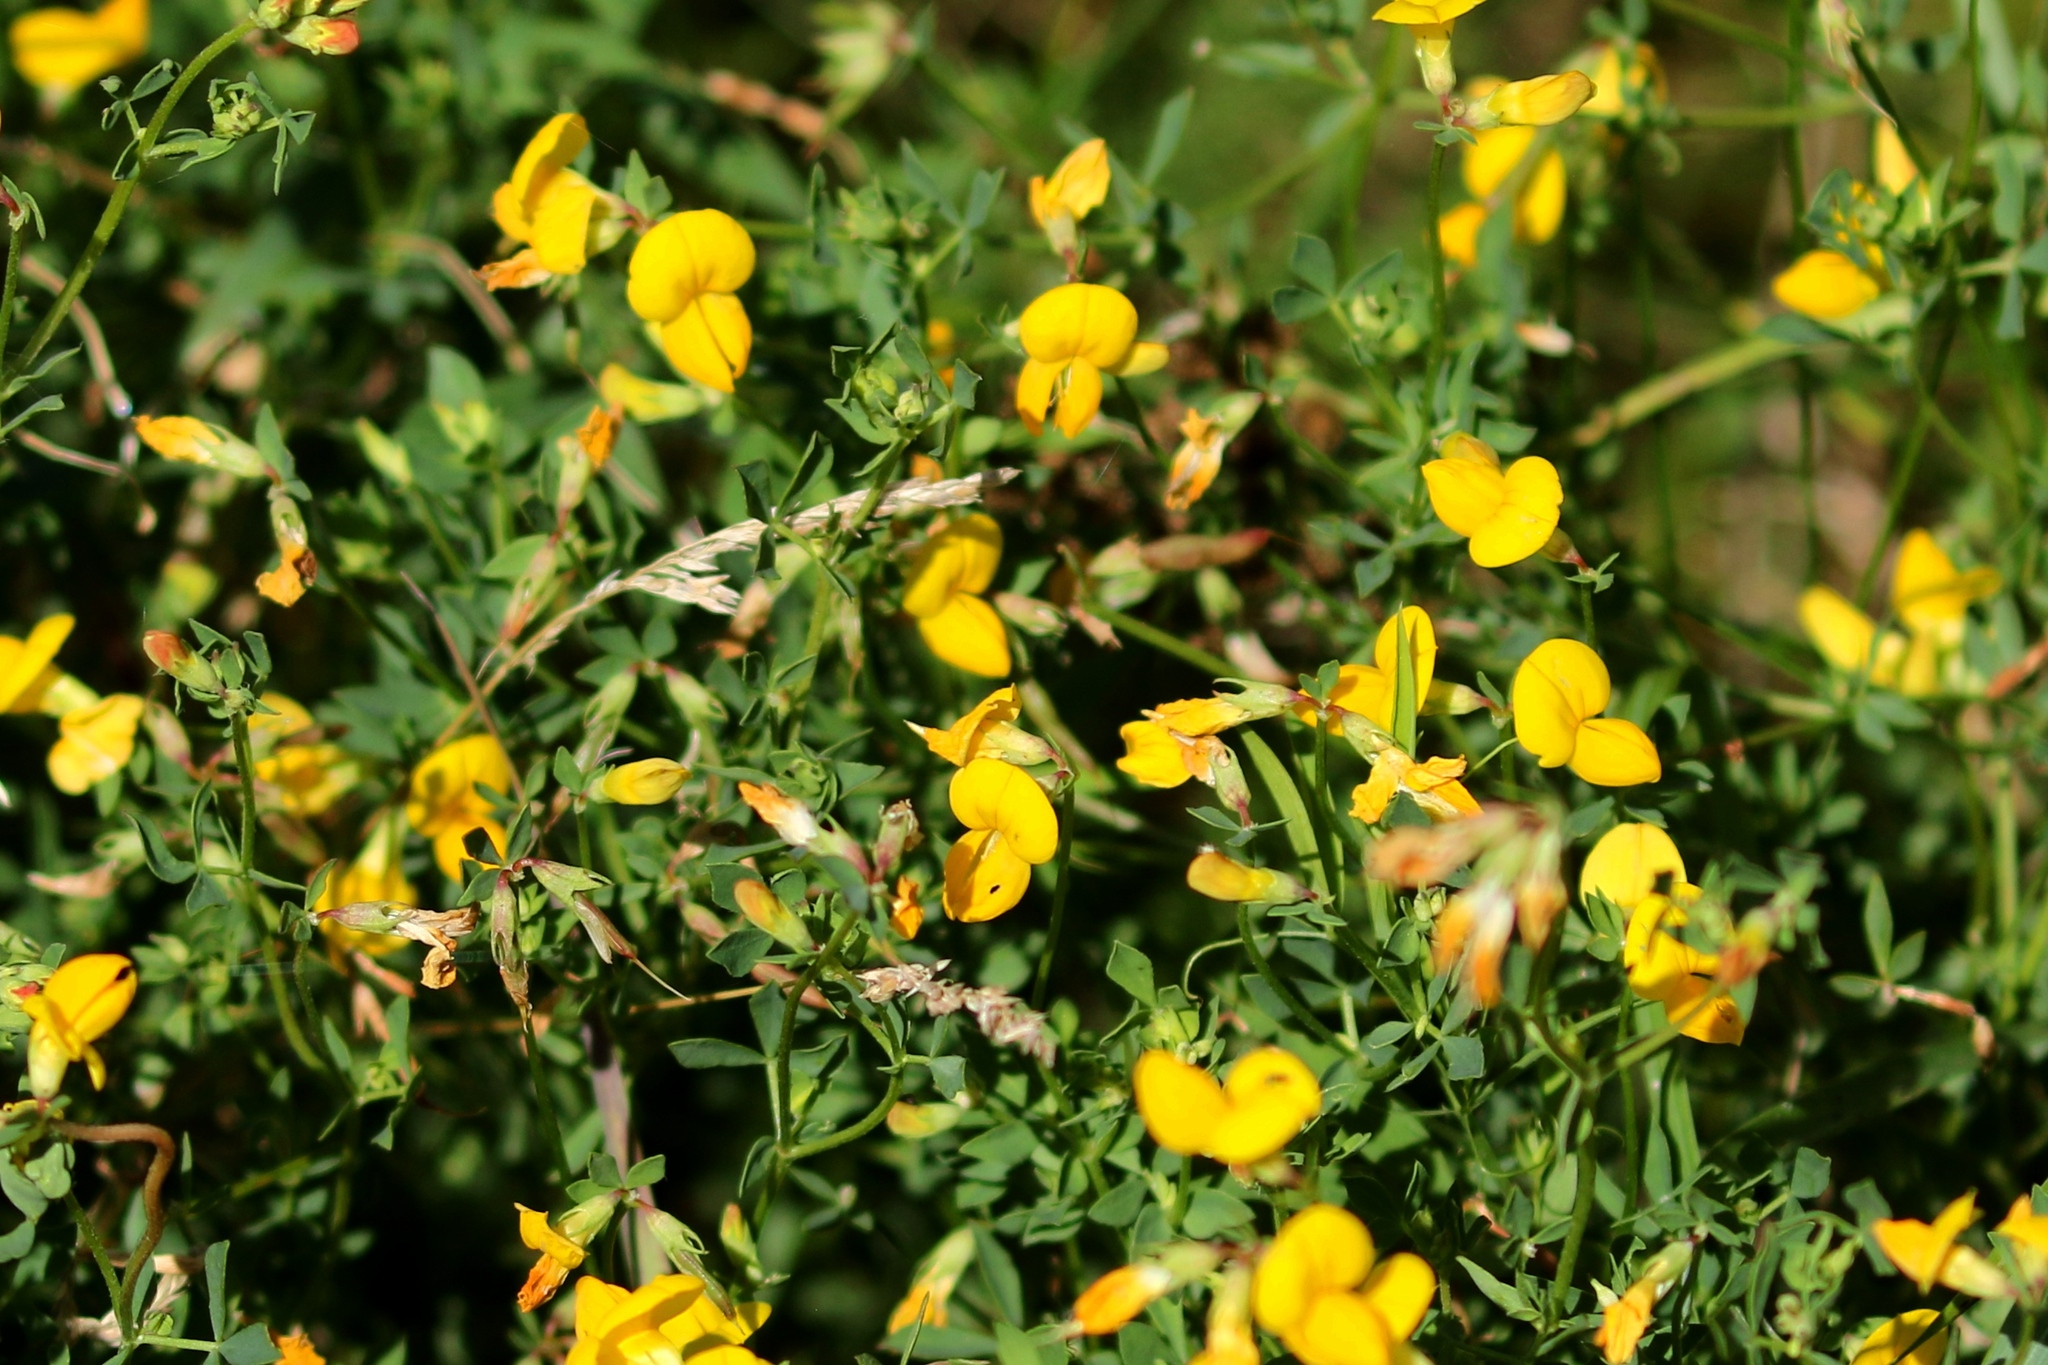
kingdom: Plantae
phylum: Tracheophyta
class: Magnoliopsida
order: Fabales
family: Fabaceae
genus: Lotus
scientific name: Lotus corniculatus
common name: Common bird's-foot-trefoil
